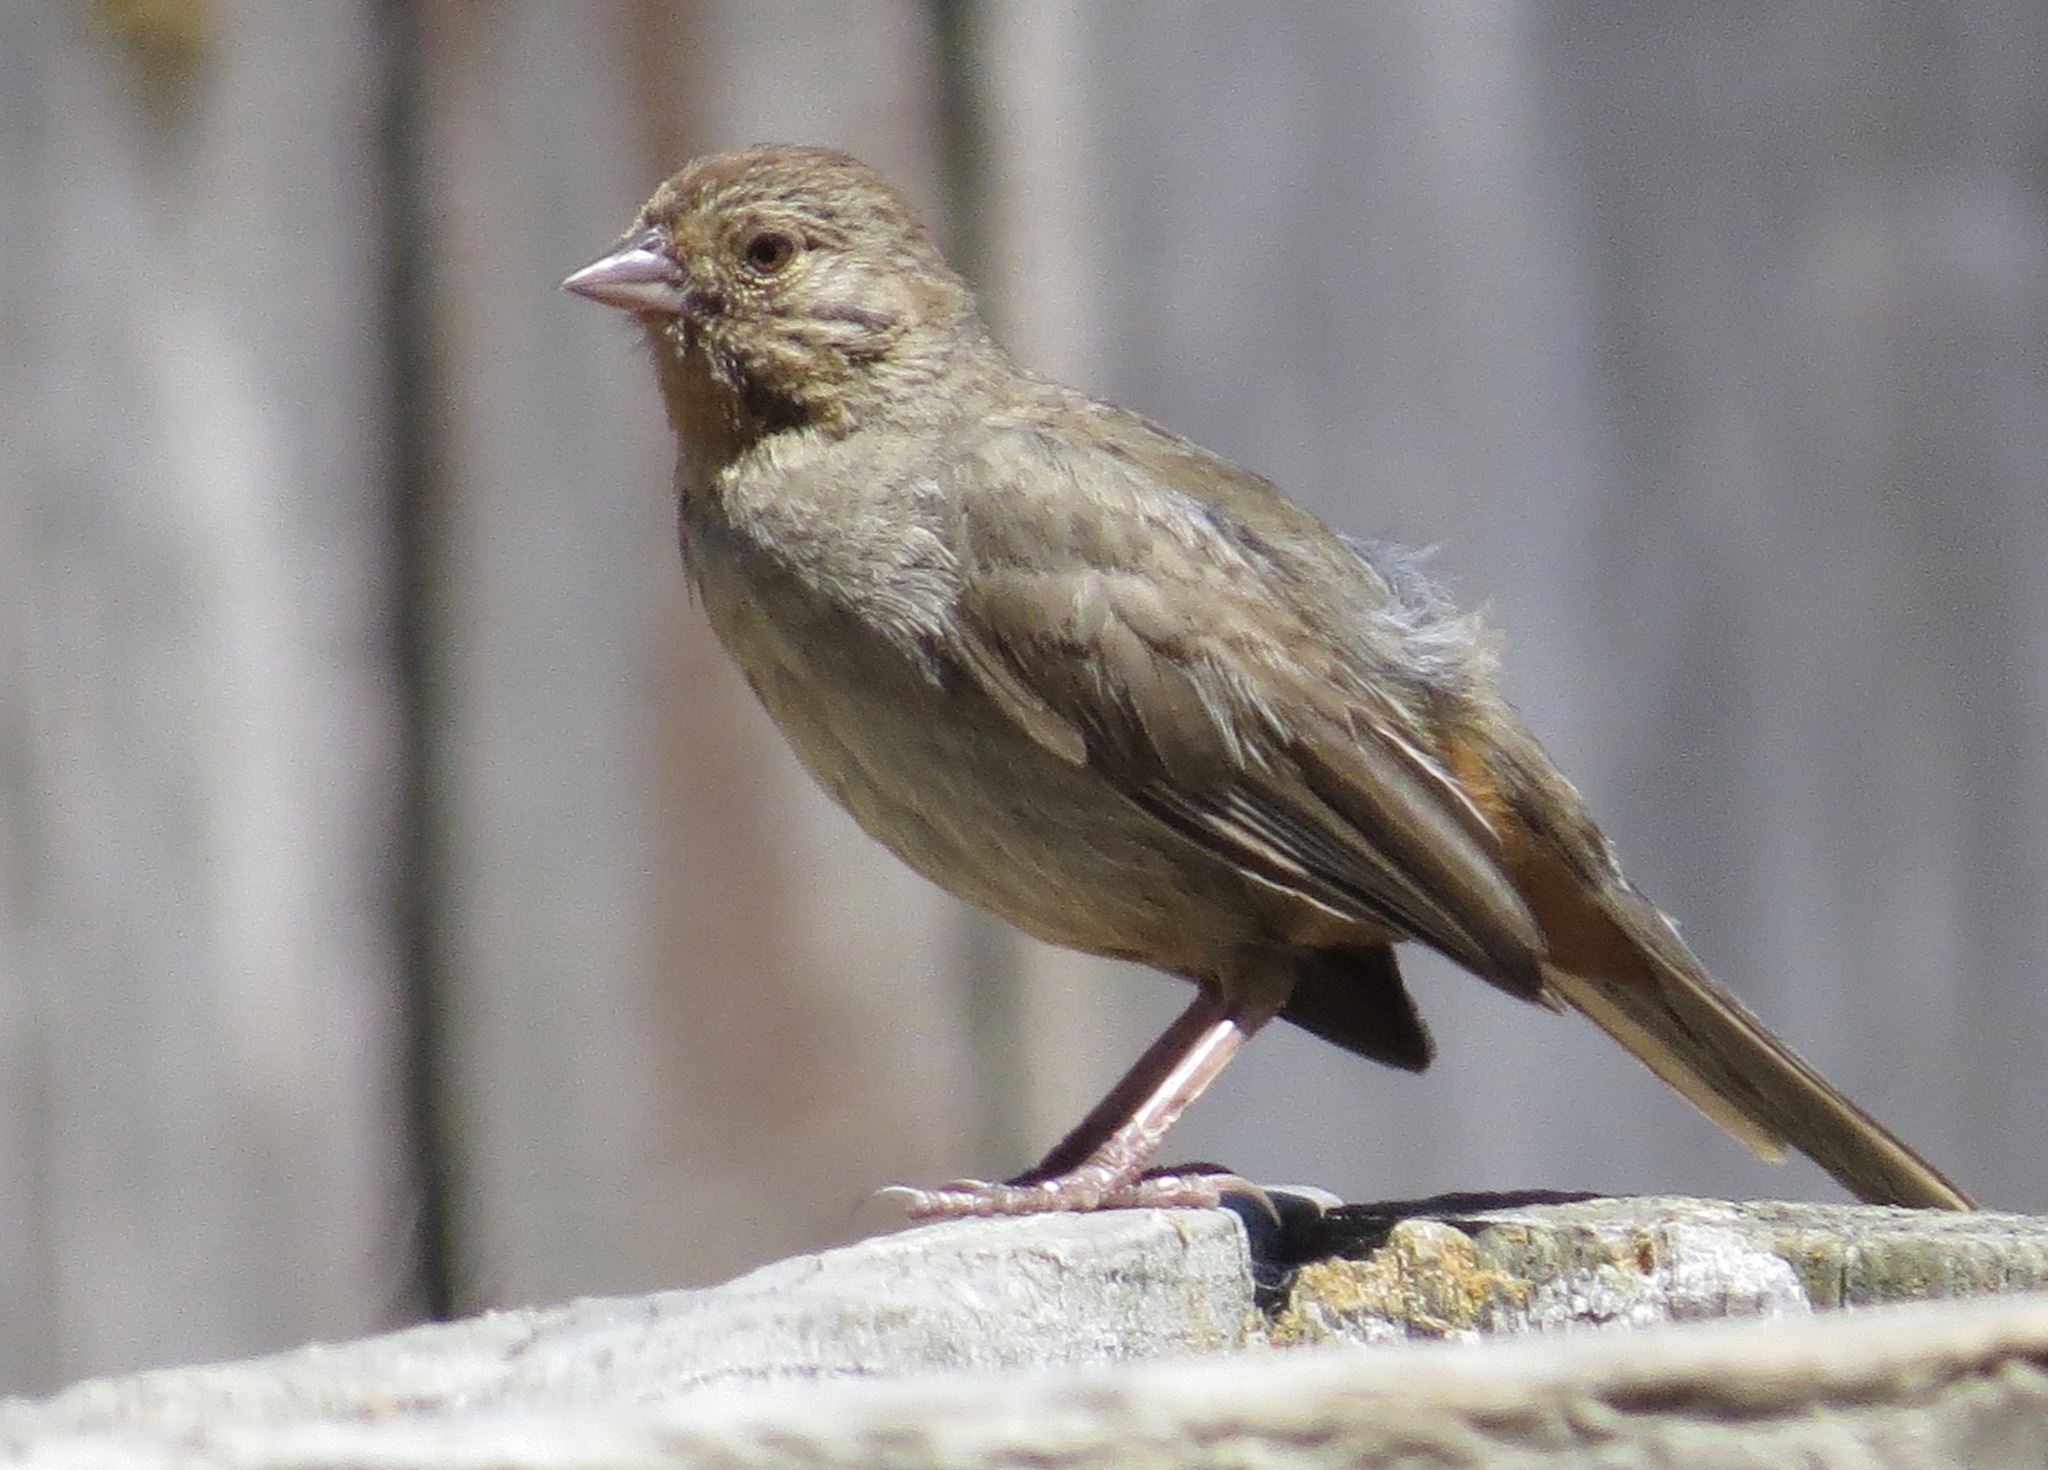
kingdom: Animalia
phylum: Chordata
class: Aves
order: Passeriformes
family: Passerellidae
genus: Melozone
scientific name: Melozone crissalis
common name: California towhee
